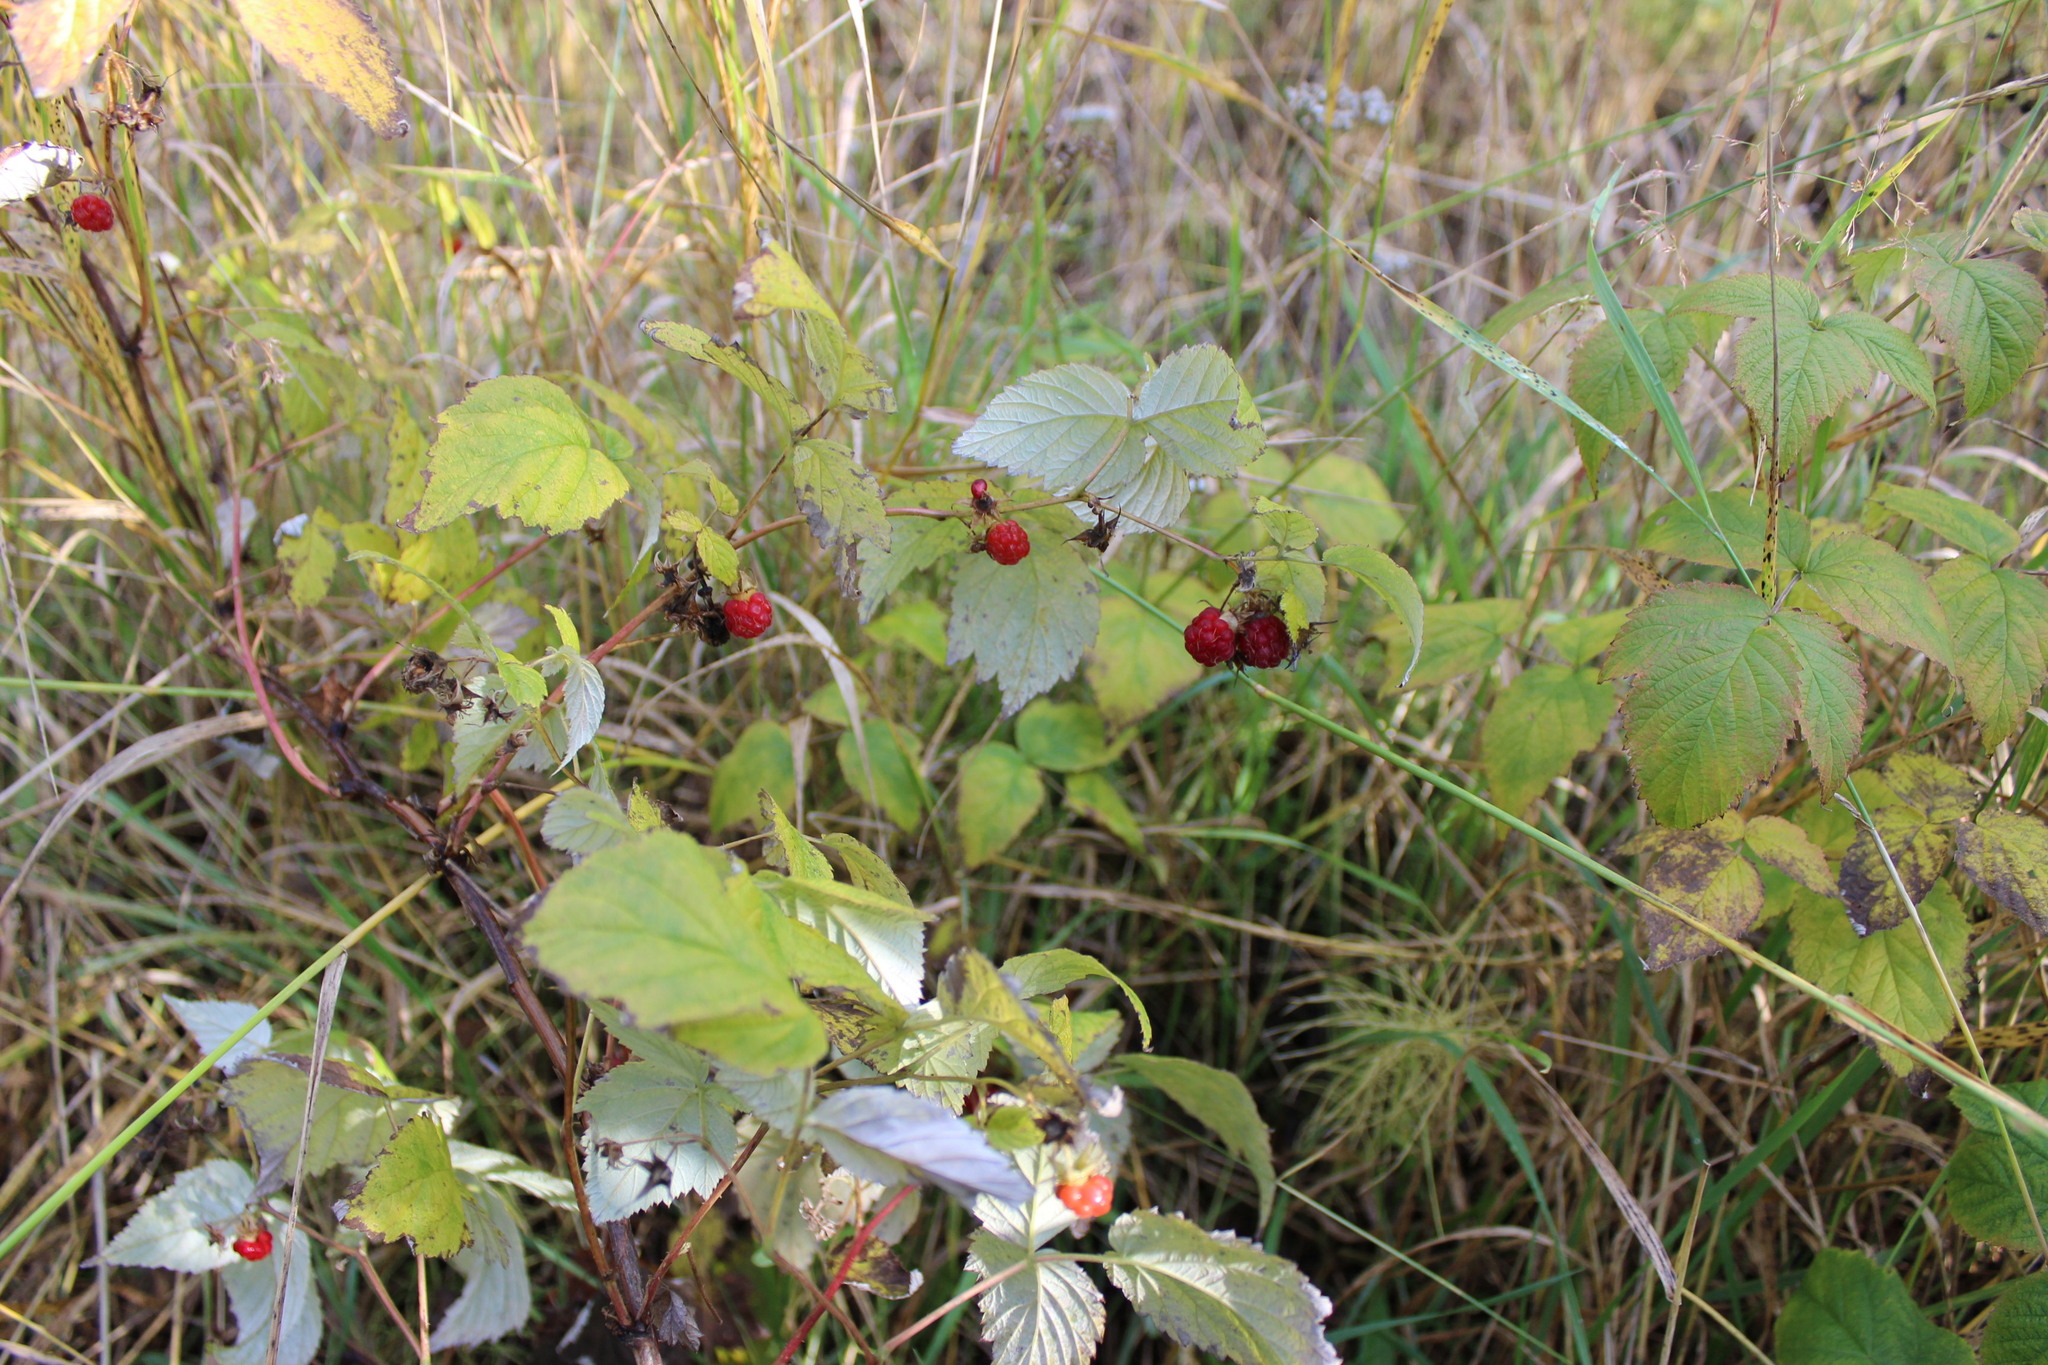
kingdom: Plantae
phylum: Tracheophyta
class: Magnoliopsida
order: Rosales
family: Rosaceae
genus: Rubus
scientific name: Rubus idaeus
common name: Raspberry
